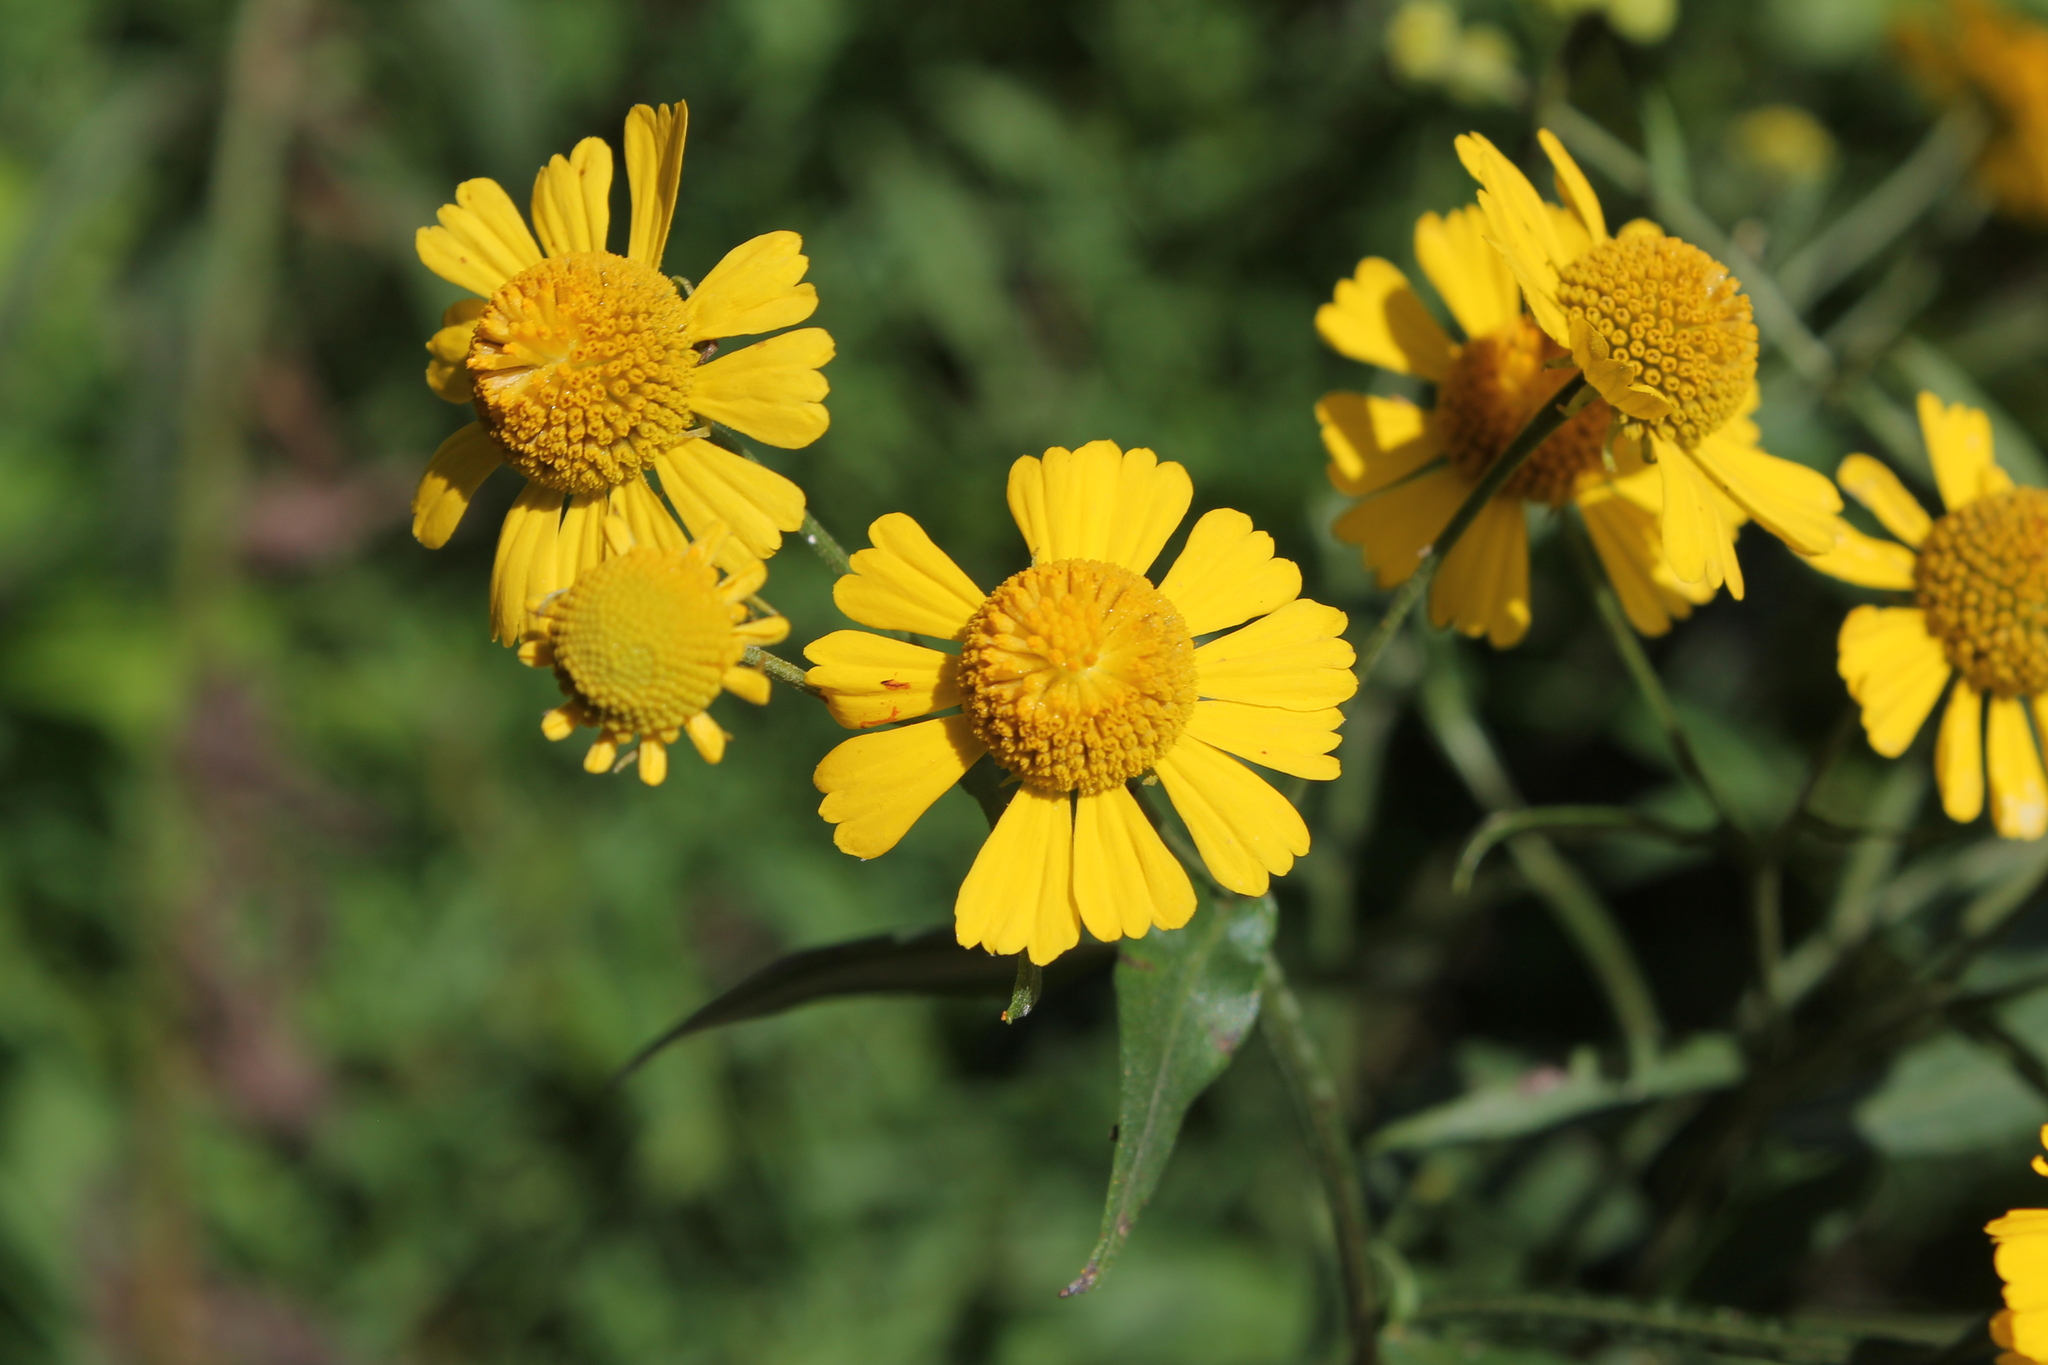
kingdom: Plantae
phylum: Tracheophyta
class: Magnoliopsida
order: Asterales
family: Asteraceae
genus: Helenium
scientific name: Helenium autumnale
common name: Sneezeweed
